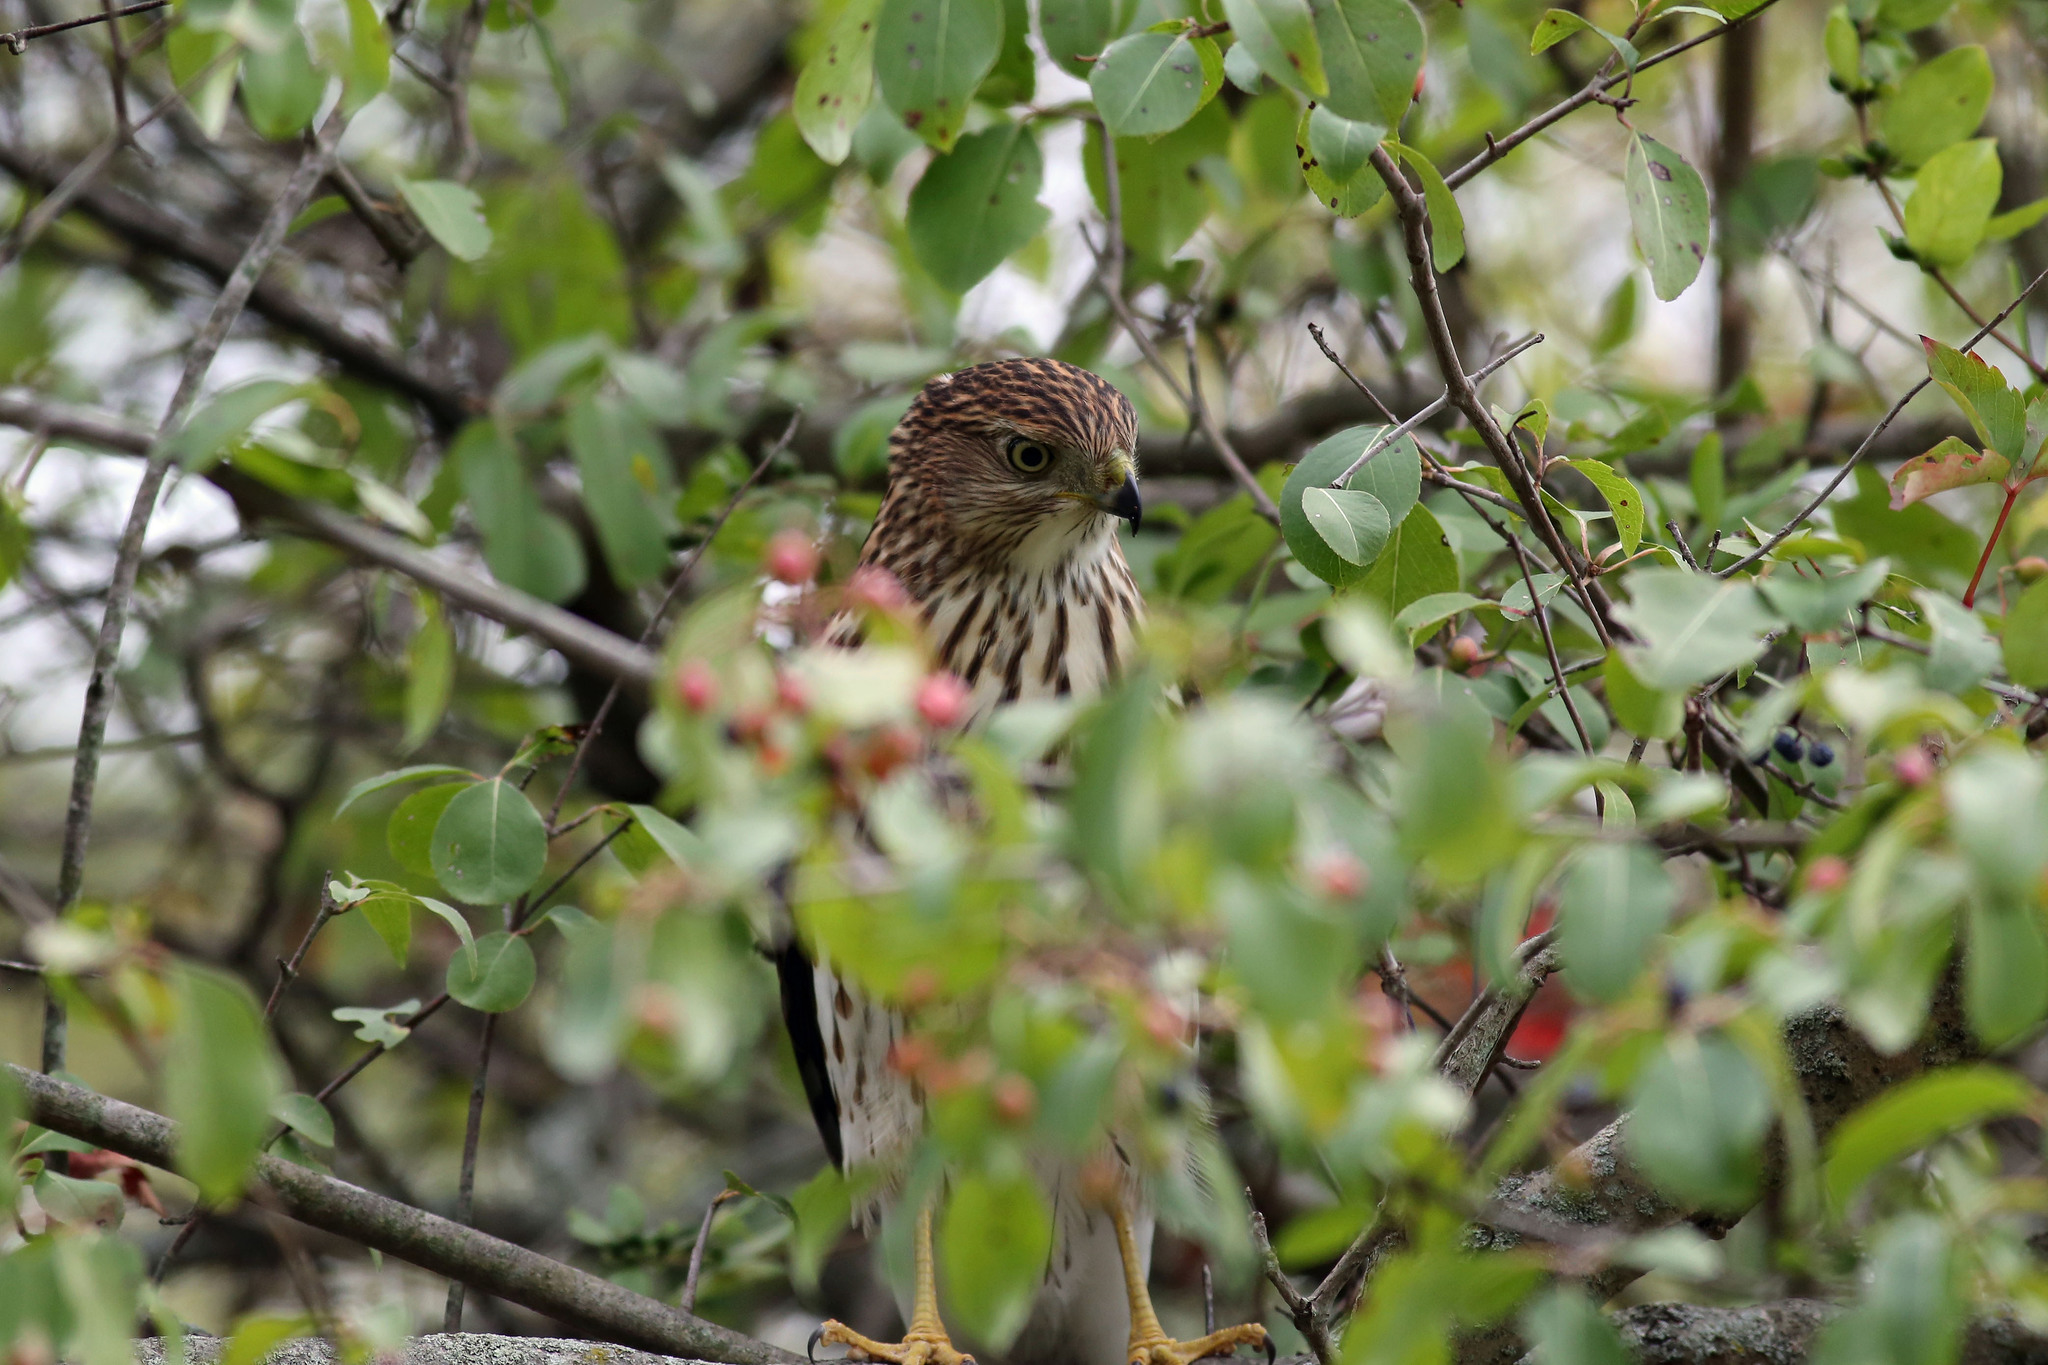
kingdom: Animalia
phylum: Chordata
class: Aves
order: Accipitriformes
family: Accipitridae
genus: Accipiter
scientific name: Accipiter cooperii
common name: Cooper's hawk
